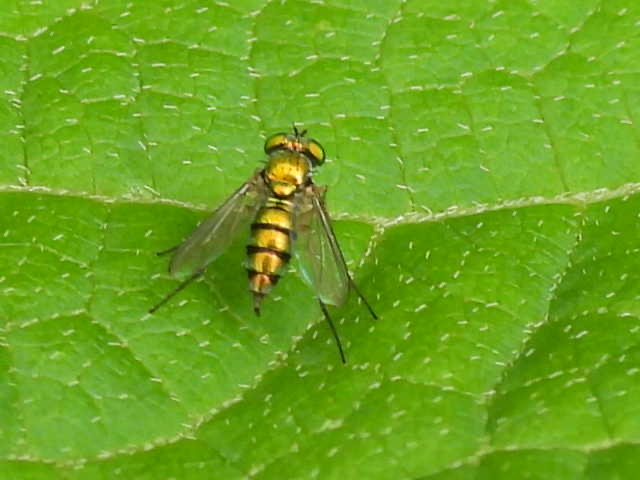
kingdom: Animalia
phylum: Arthropoda
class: Insecta
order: Diptera
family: Dolichopodidae
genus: Condylostylus
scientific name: Condylostylus
